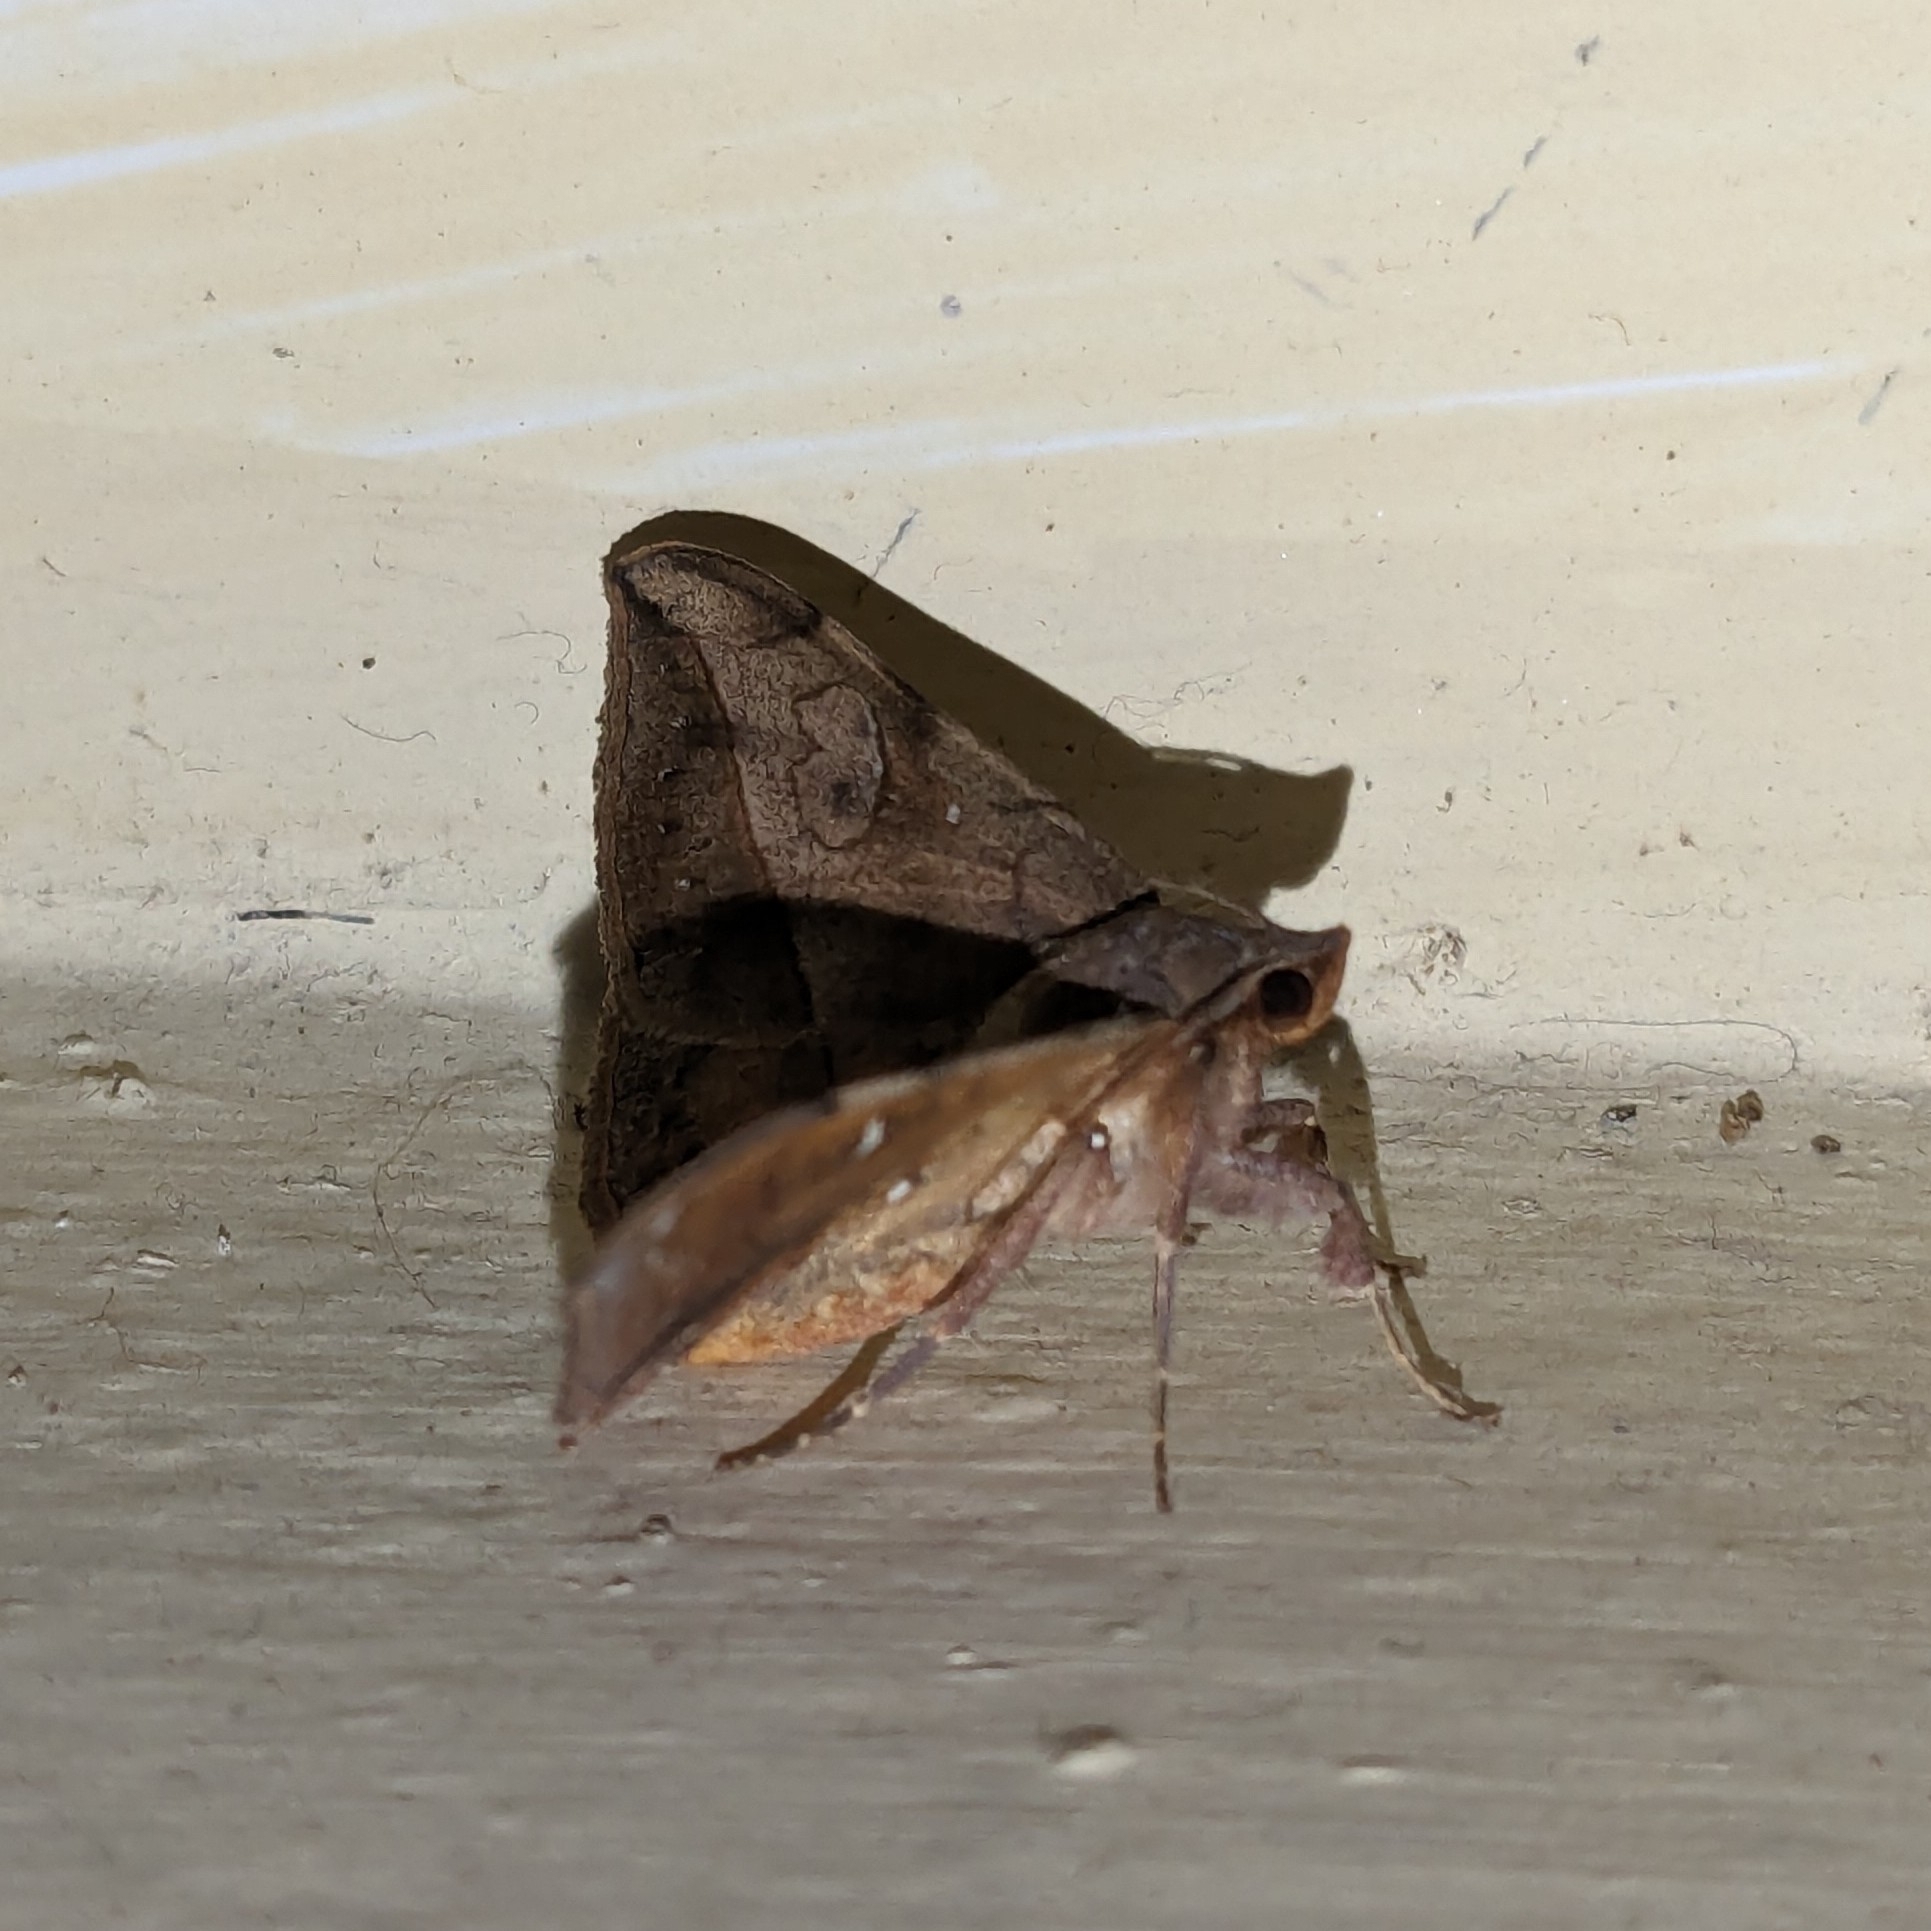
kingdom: Animalia
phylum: Arthropoda
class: Insecta
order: Lepidoptera
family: Erebidae
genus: Anticarsia
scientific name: Anticarsia irrorata
